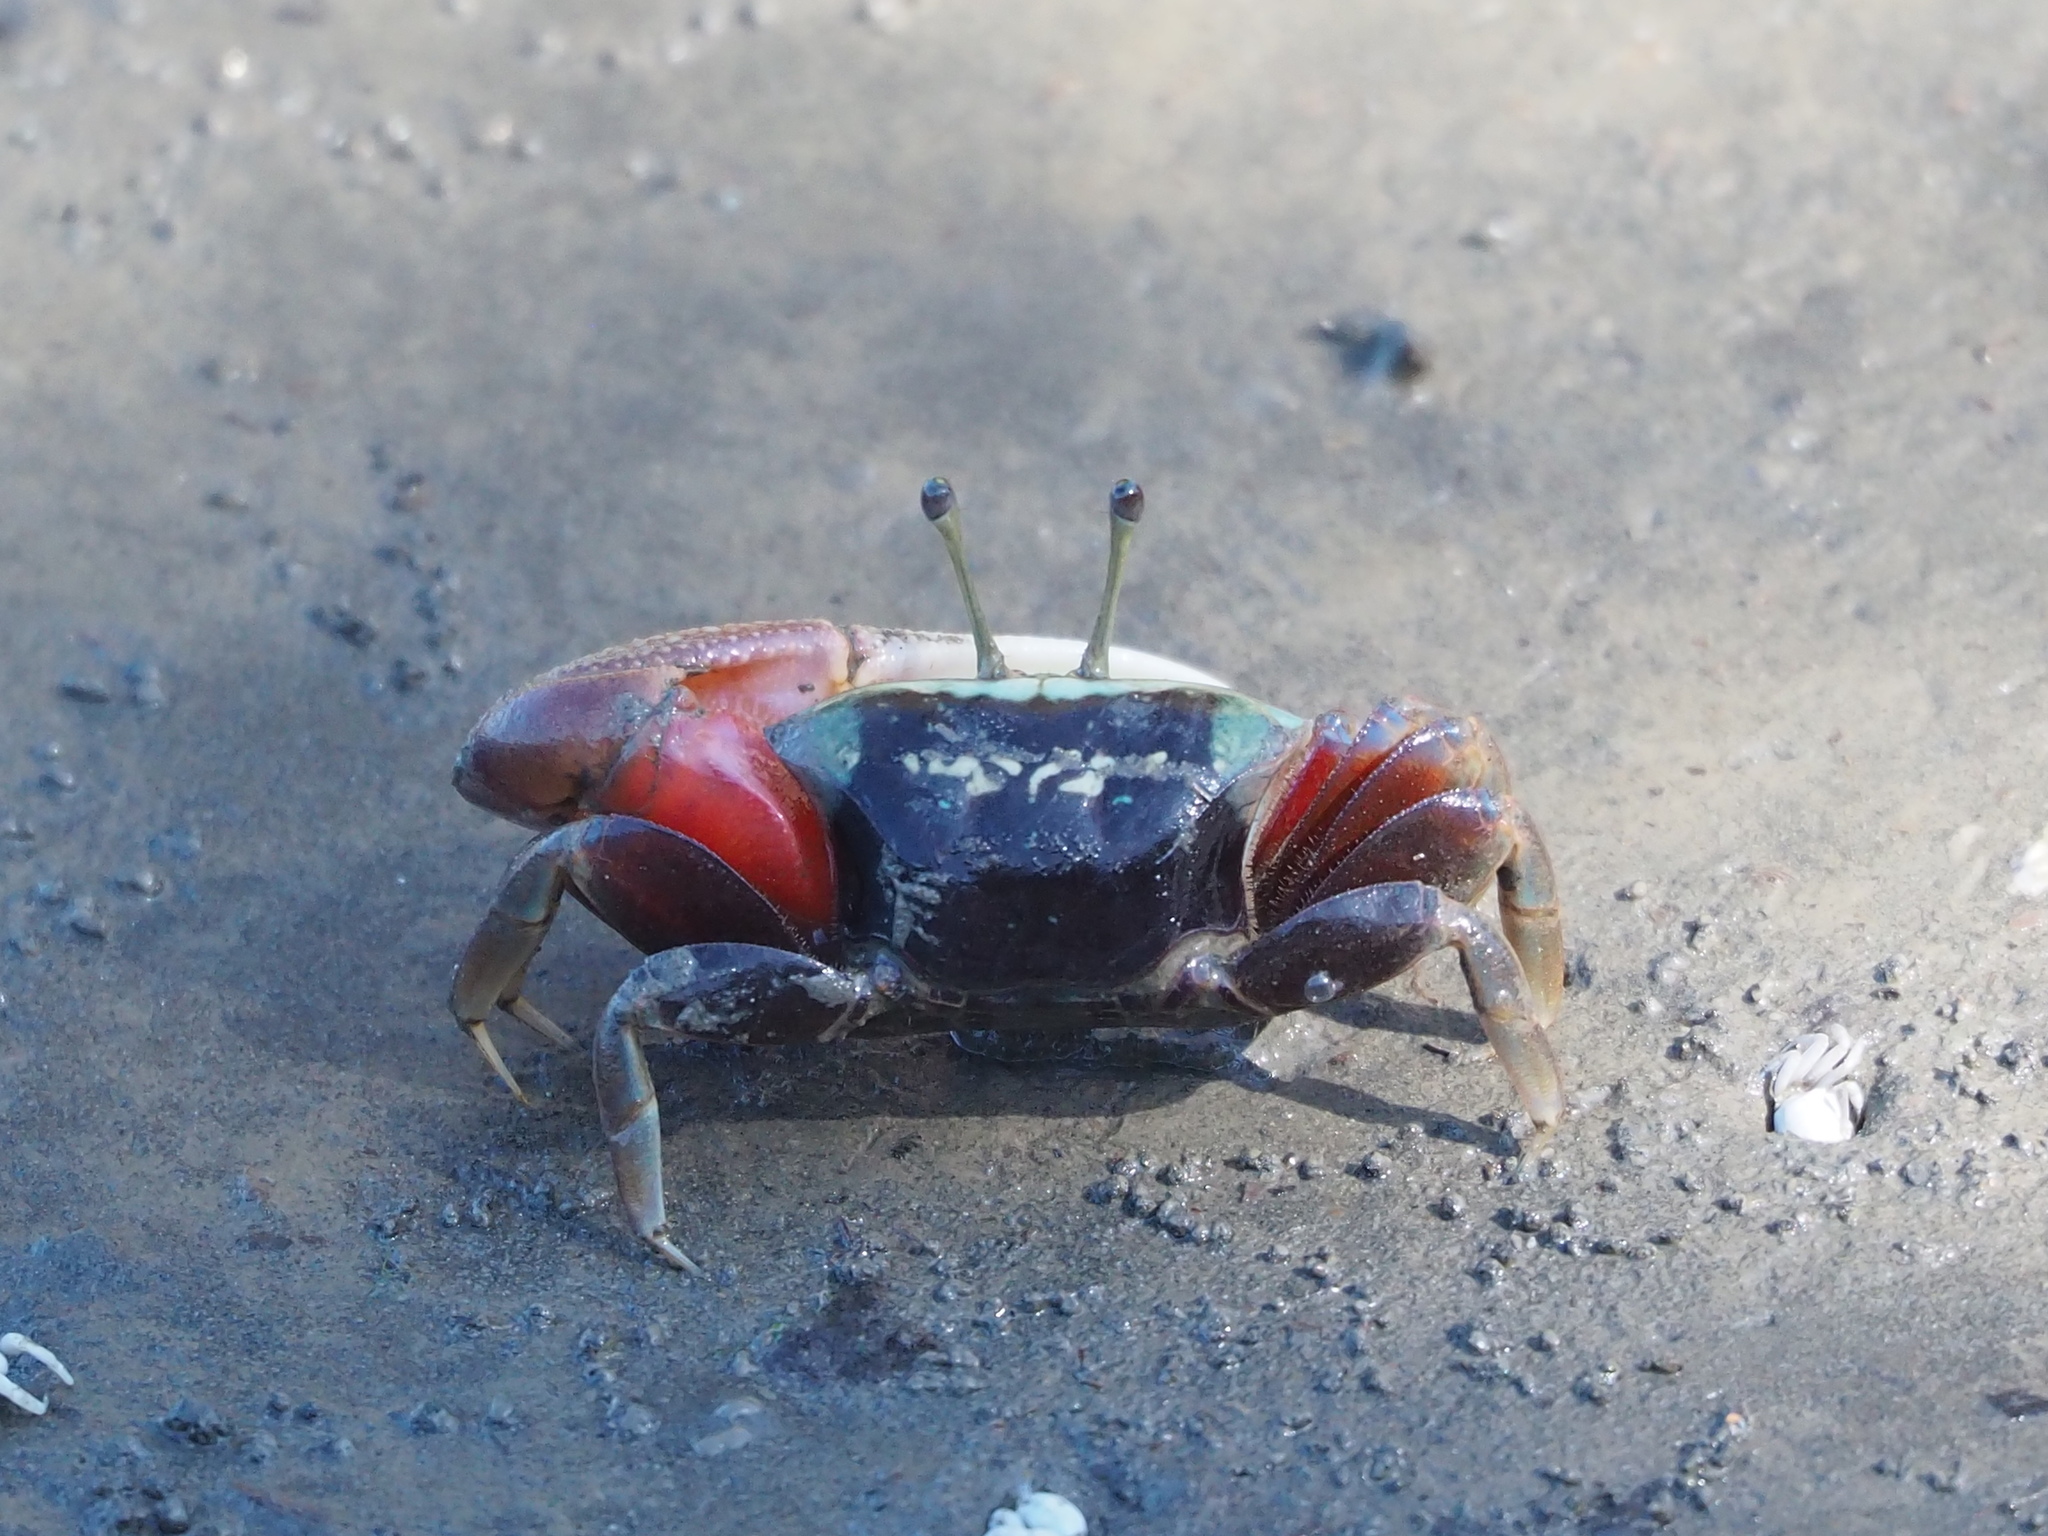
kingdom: Animalia
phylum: Arthropoda
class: Malacostraca
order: Decapoda
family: Ocypodidae
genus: Tubuca
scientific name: Tubuca arcuata
